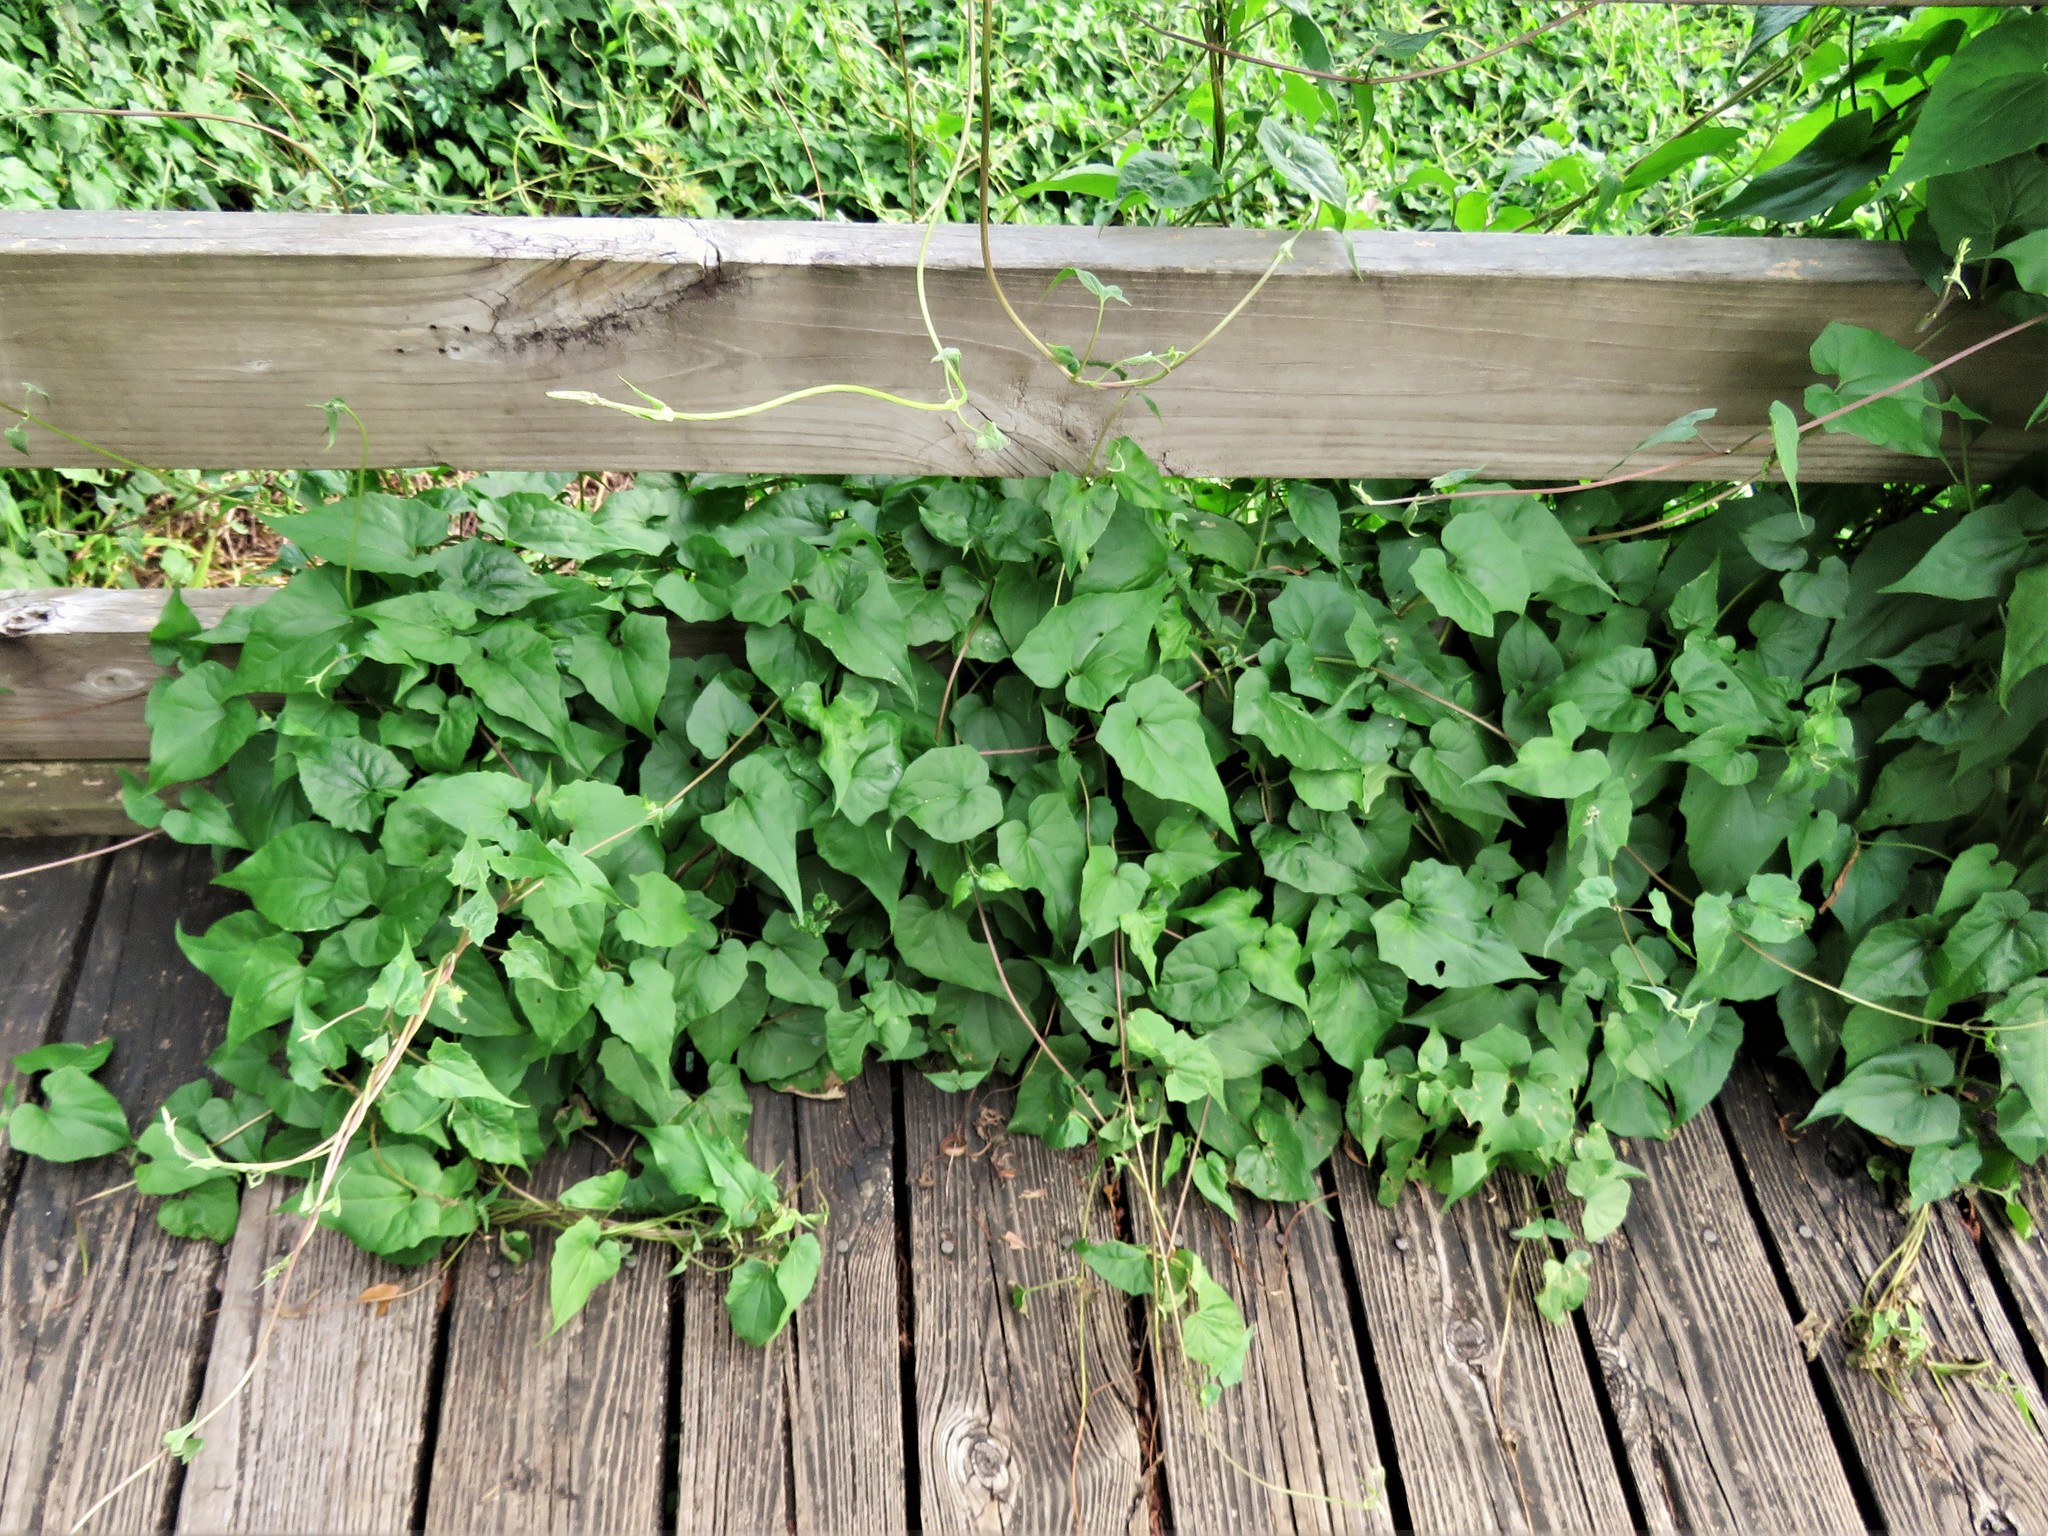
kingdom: Plantae
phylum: Tracheophyta
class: Magnoliopsida
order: Asterales
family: Asteraceae
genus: Mikania
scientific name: Mikania scandens
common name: Climbing hempvine
